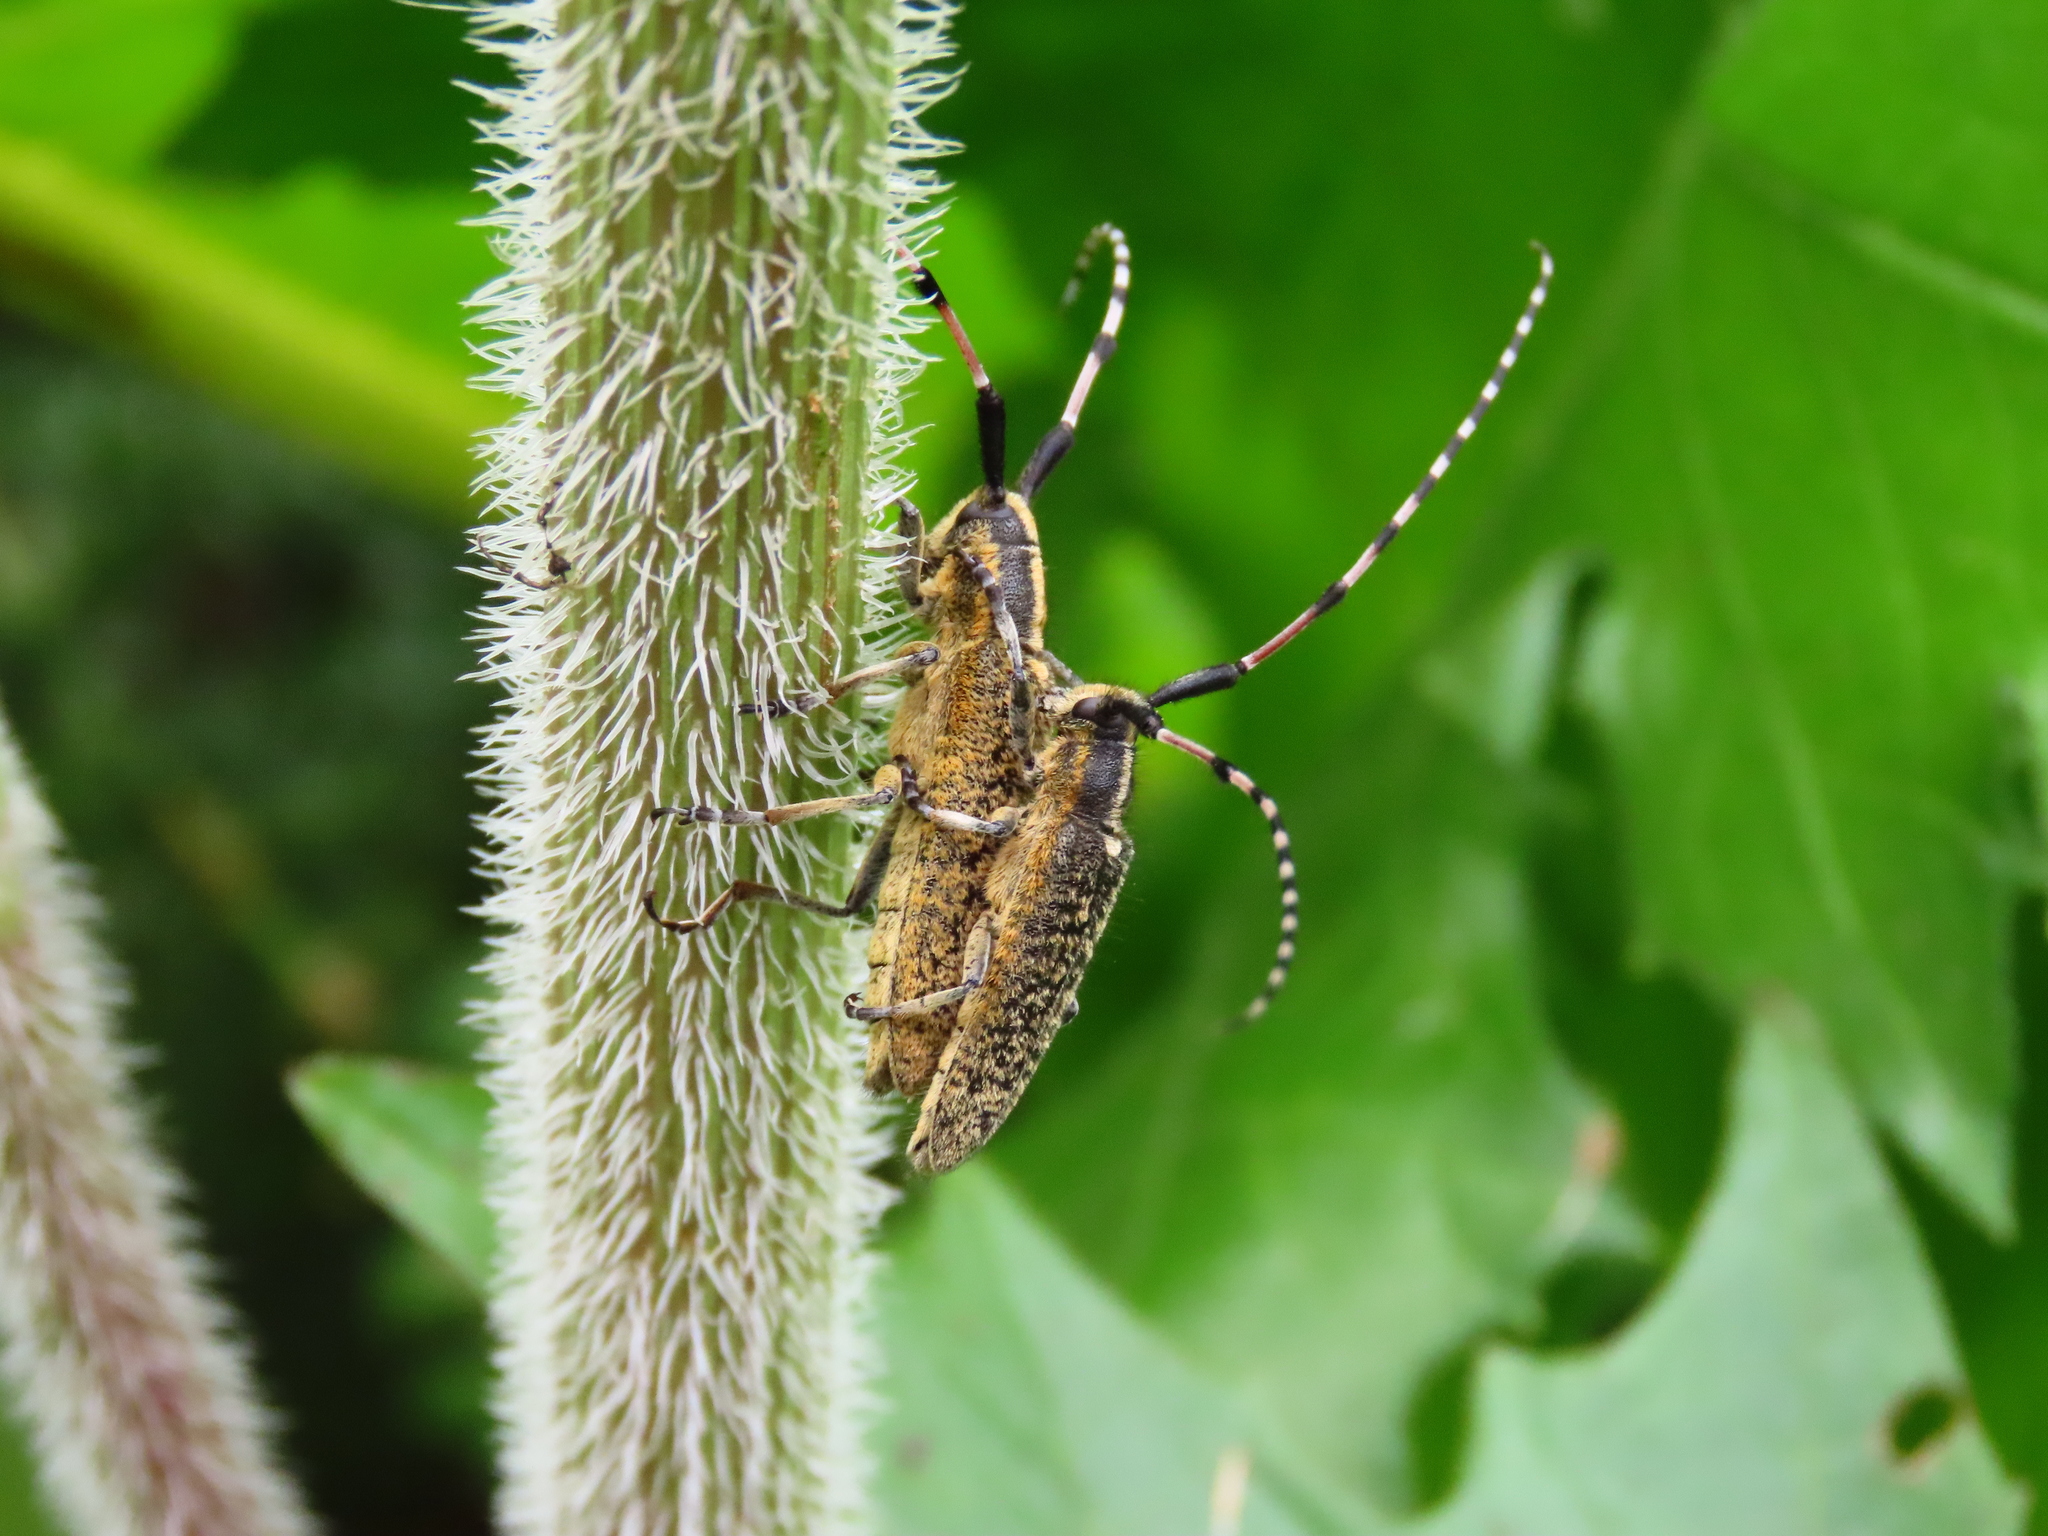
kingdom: Animalia
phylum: Arthropoda
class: Insecta
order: Coleoptera
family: Cerambycidae
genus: Agapanthia
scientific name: Agapanthia dahlii
